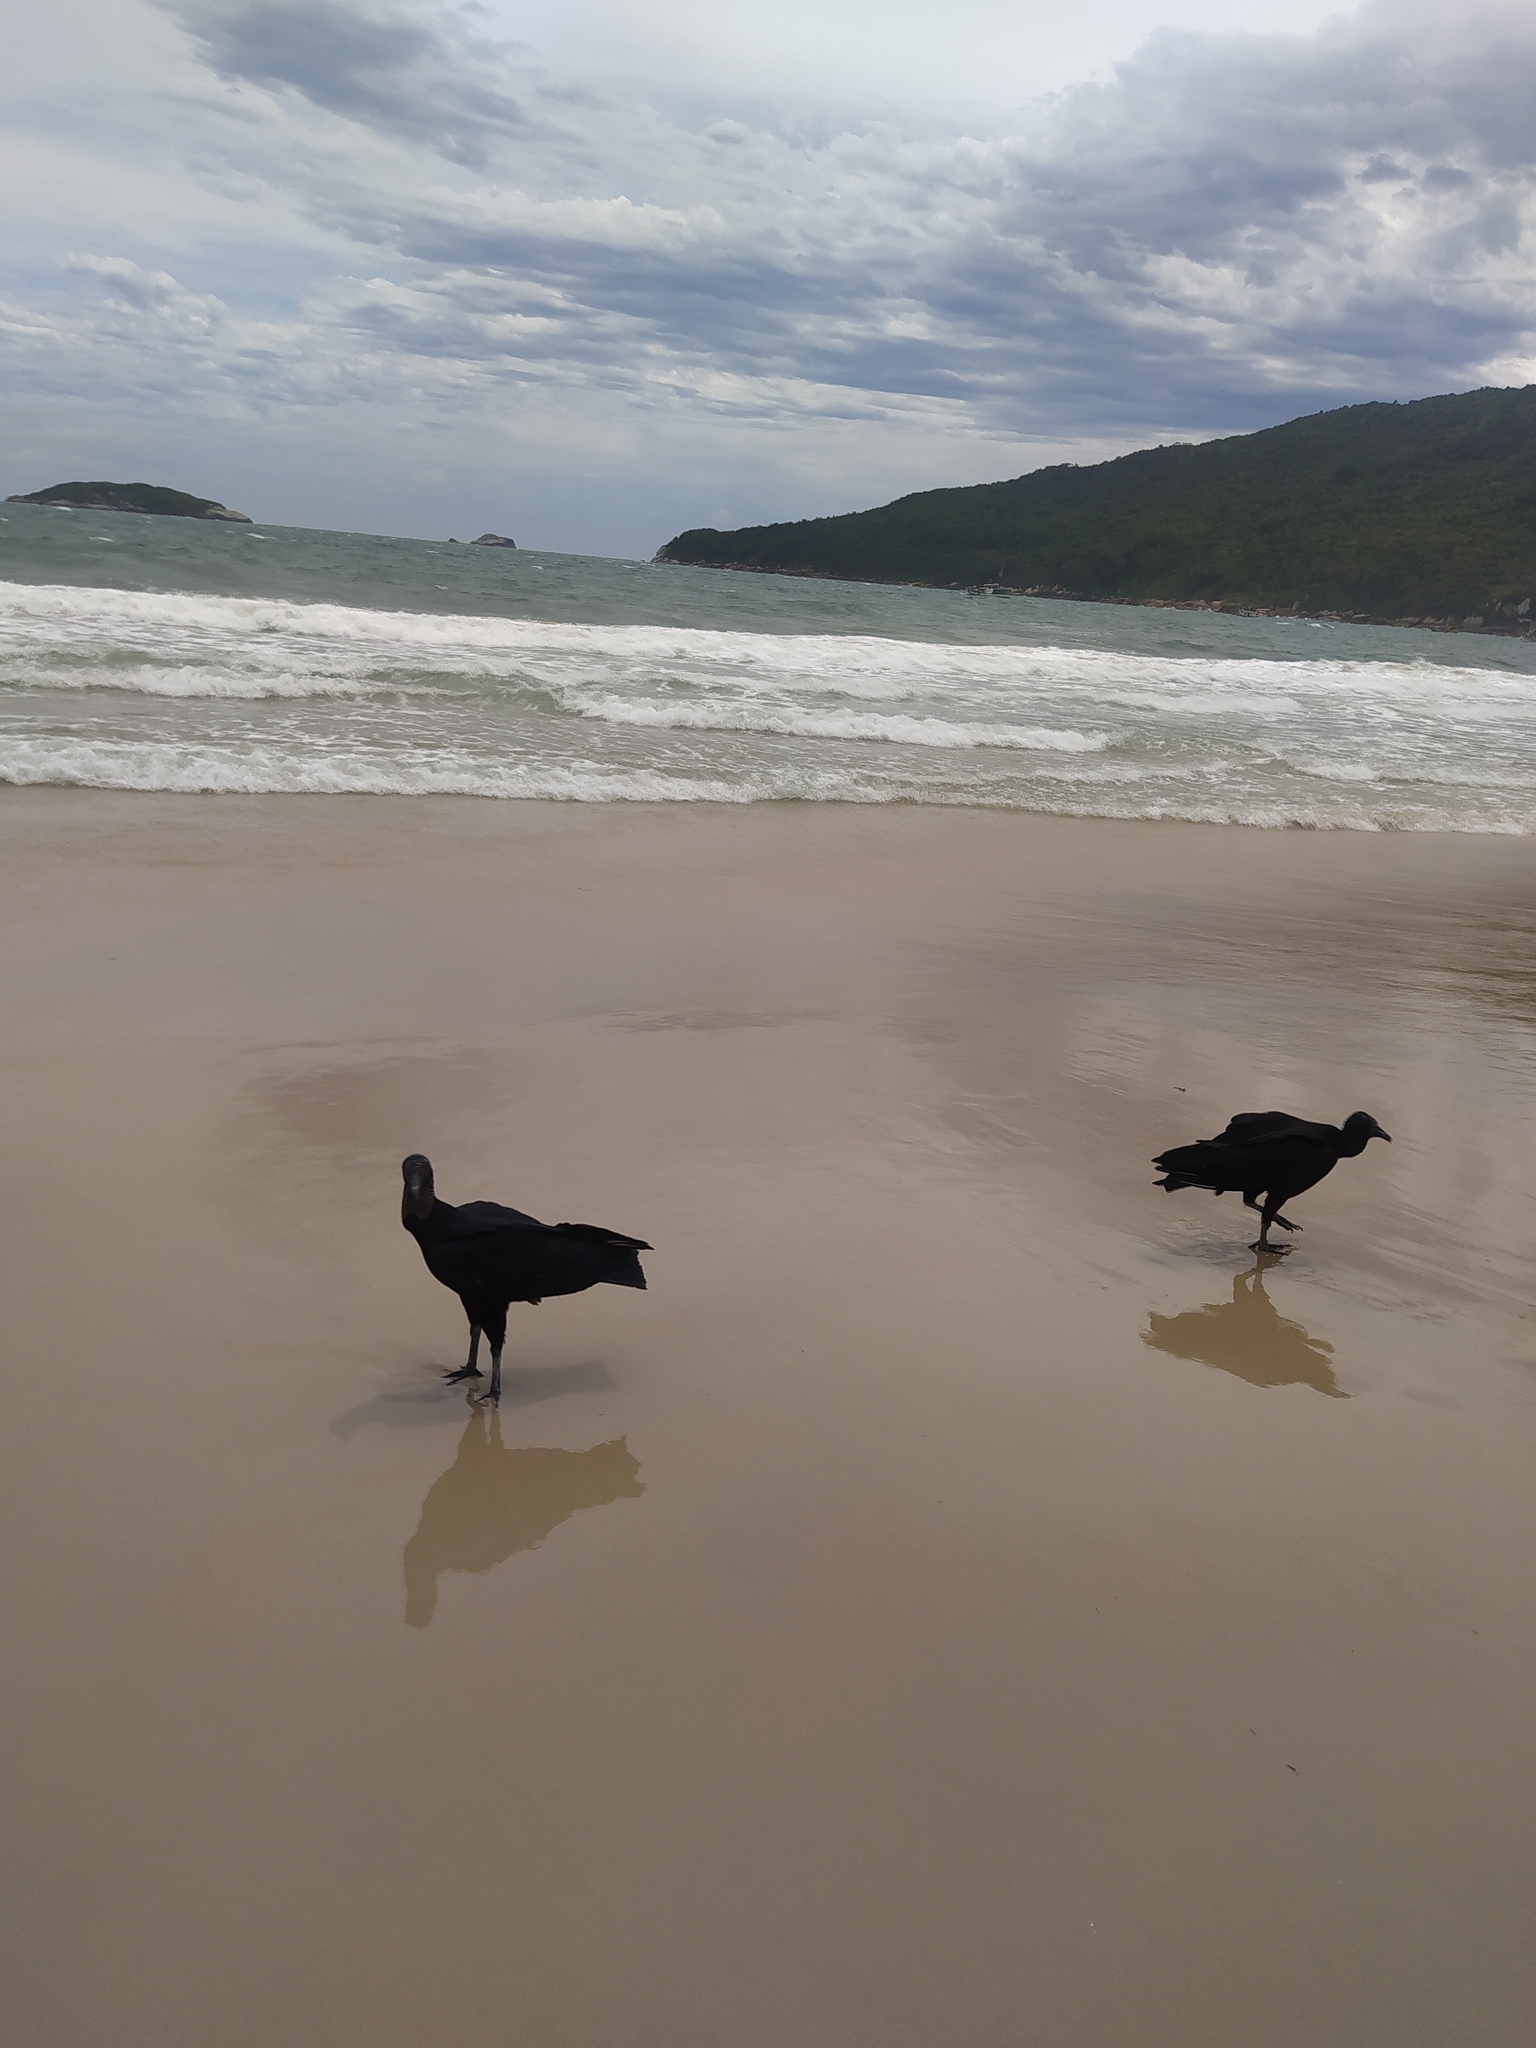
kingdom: Animalia
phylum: Chordata
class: Aves
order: Accipitriformes
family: Cathartidae
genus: Coragyps
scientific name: Coragyps atratus
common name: Black vulture
